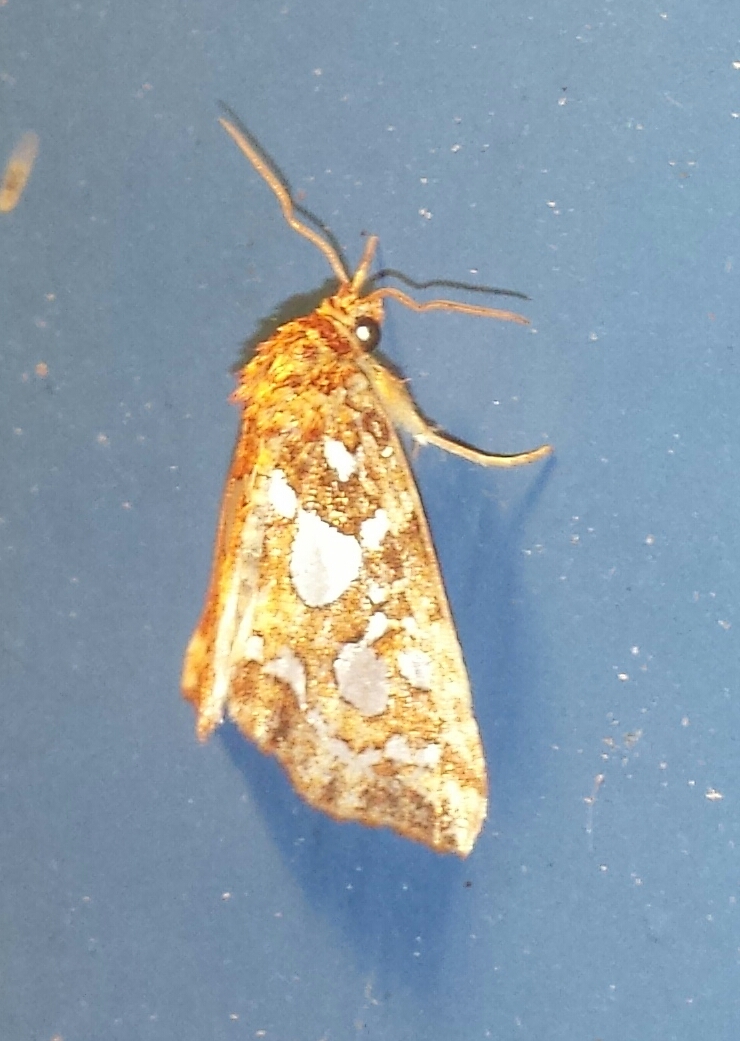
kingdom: Animalia
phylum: Arthropoda
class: Insecta
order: Lepidoptera
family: Noctuidae
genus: Callopistria
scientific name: Callopistria cordata
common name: Silver-spotted fern moth
